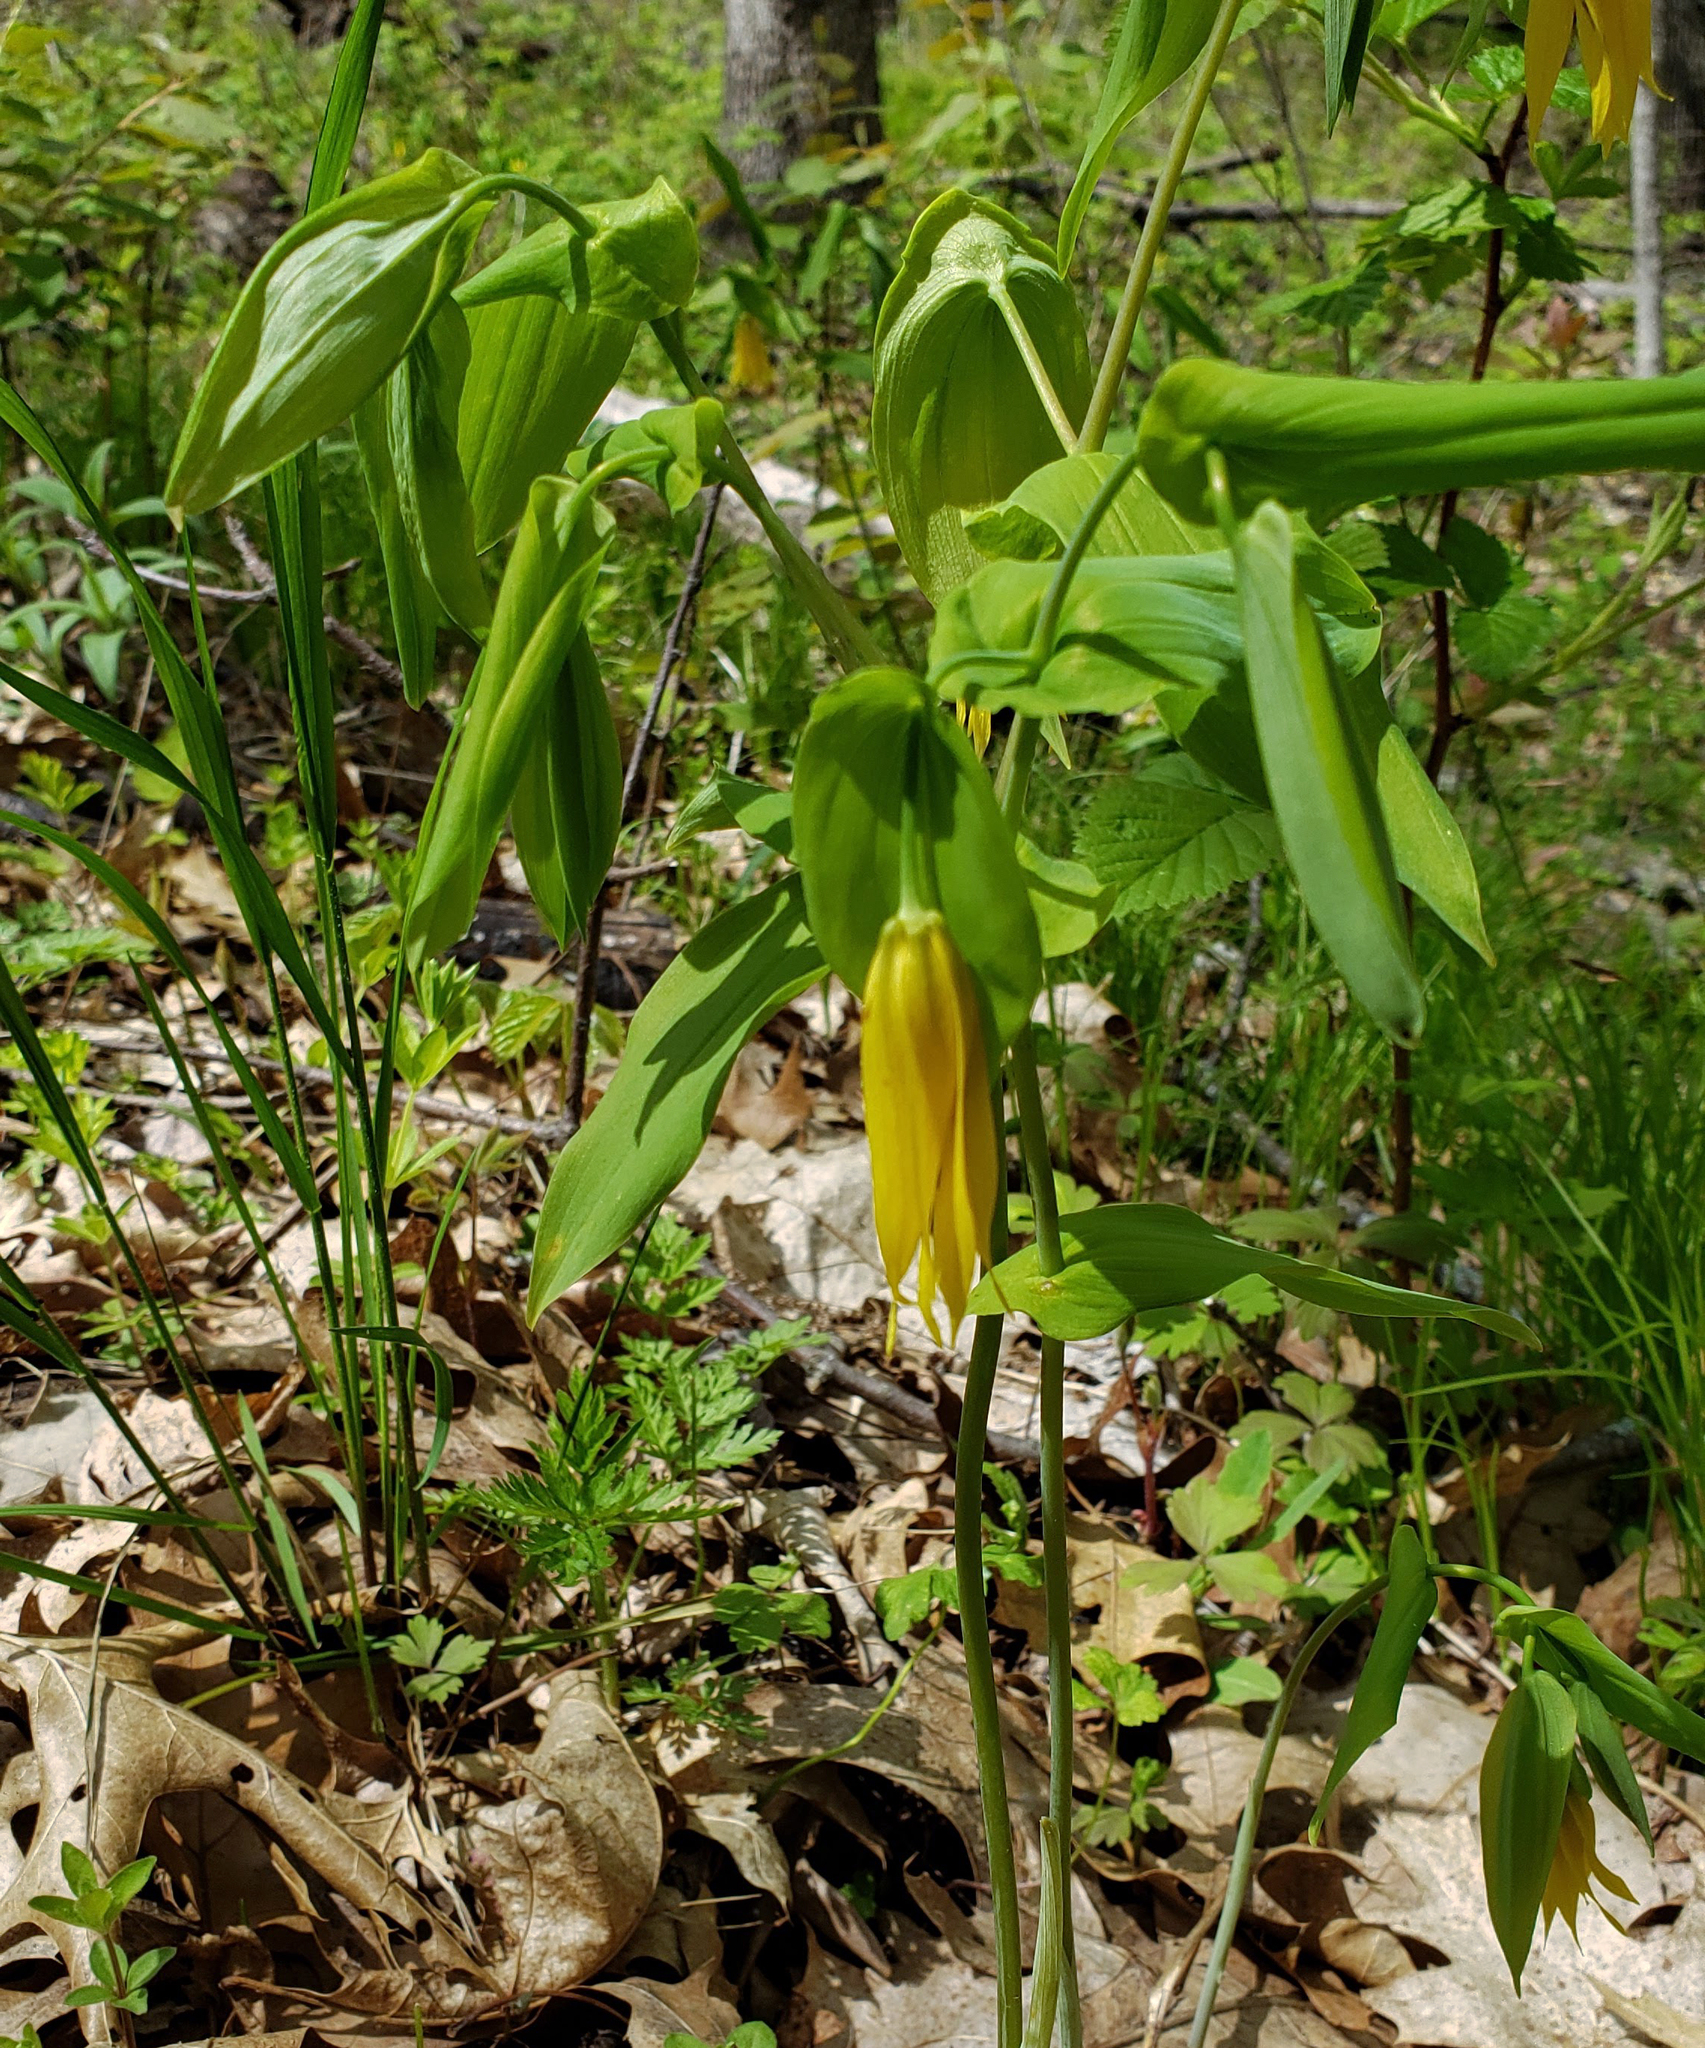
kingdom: Plantae
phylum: Tracheophyta
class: Liliopsida
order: Liliales
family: Colchicaceae
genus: Uvularia
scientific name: Uvularia grandiflora
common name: Bellwort
